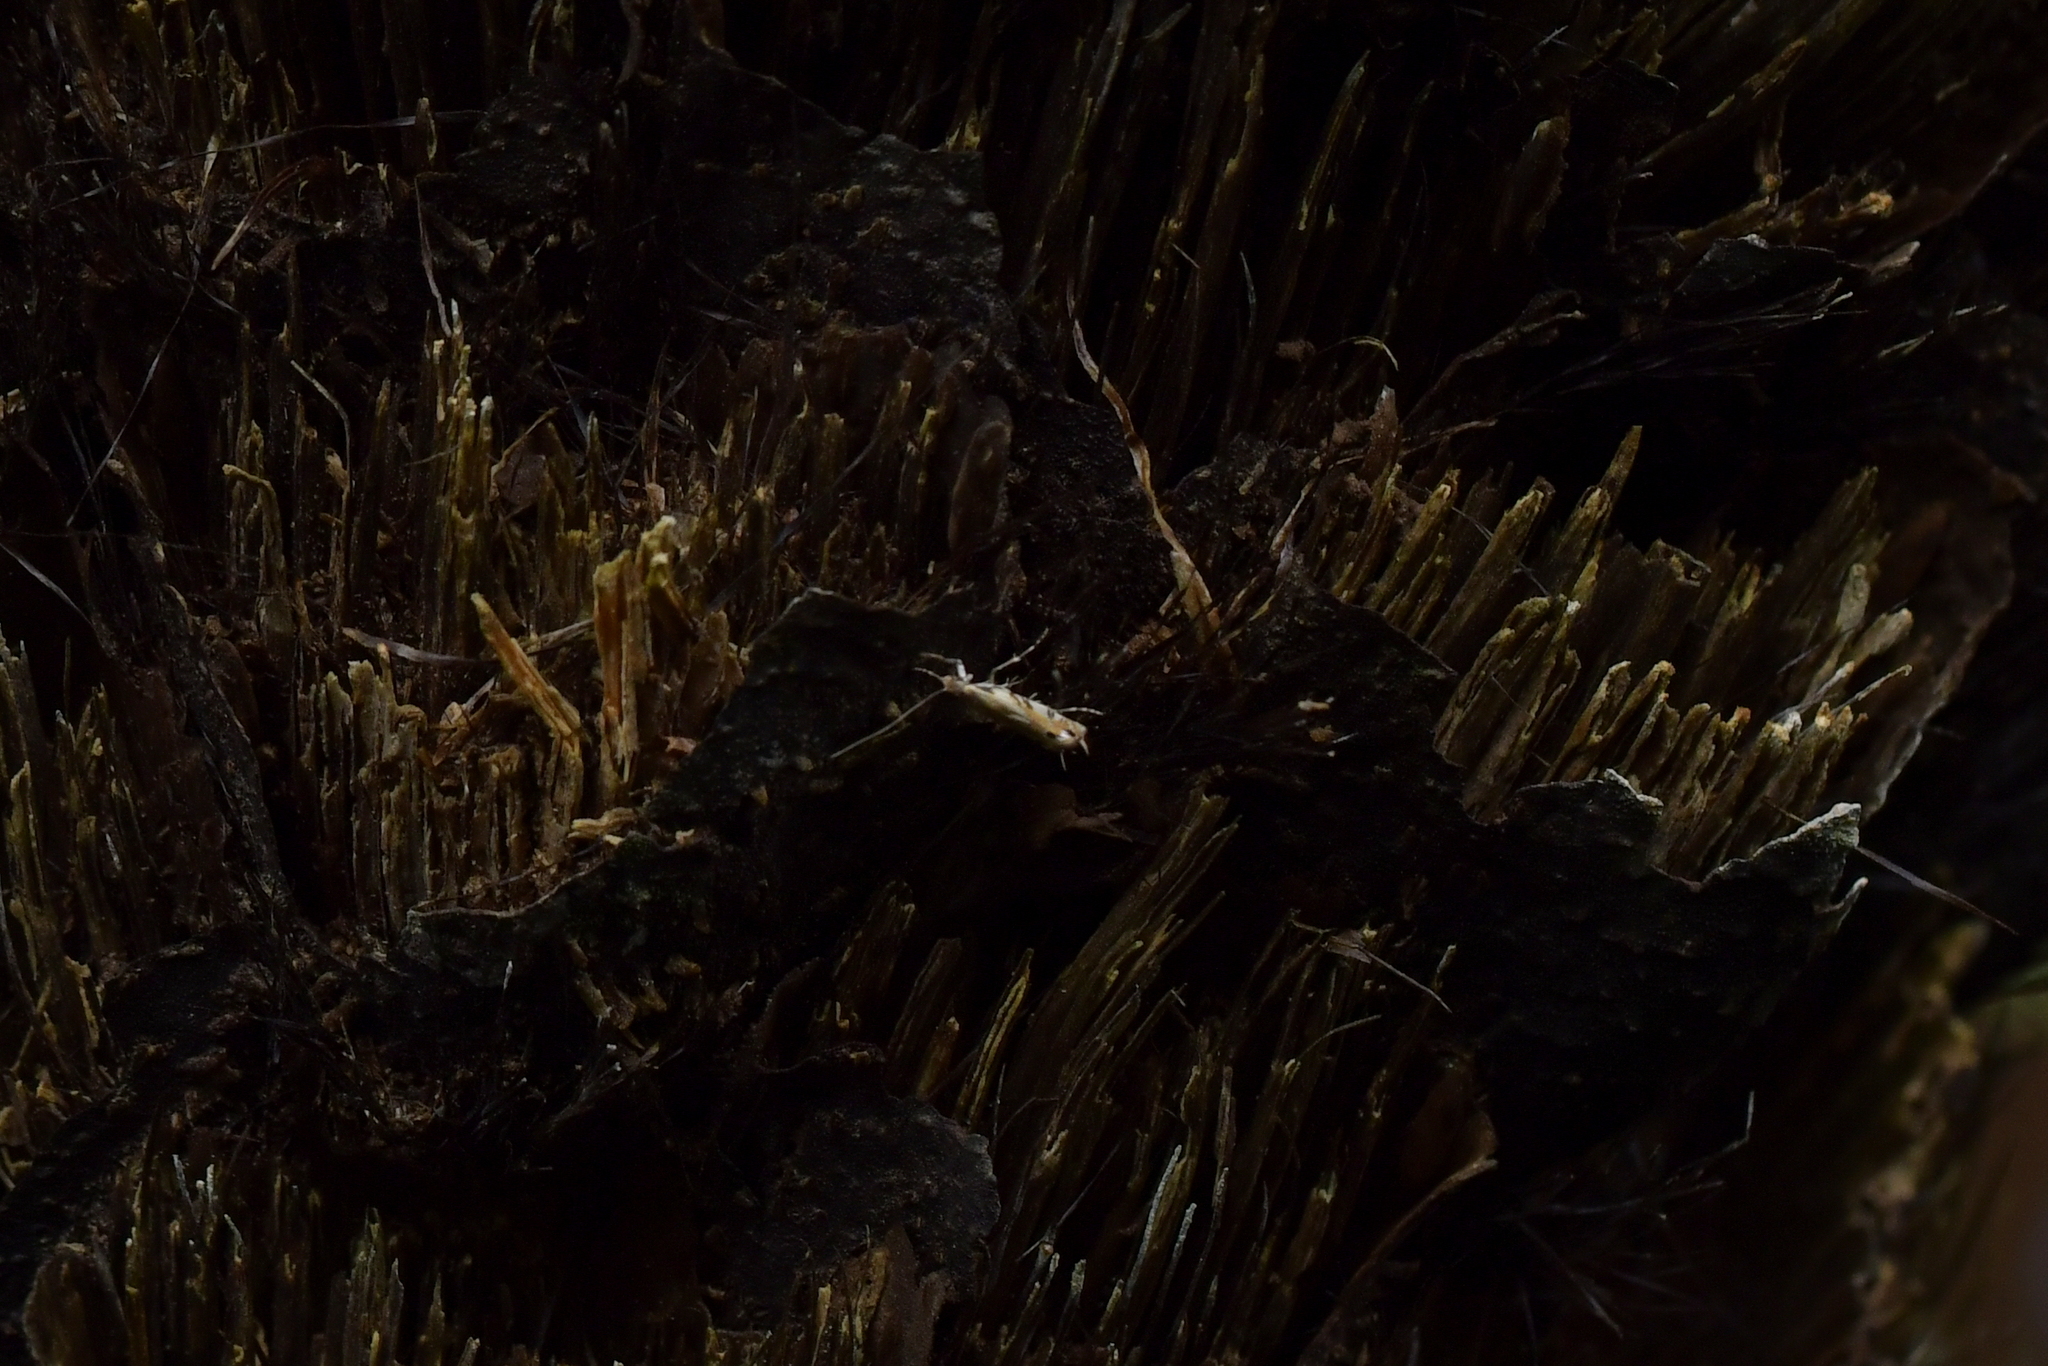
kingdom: Animalia
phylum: Arthropoda
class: Insecta
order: Lepidoptera
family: Tineidae
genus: Erechthias
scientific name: Erechthias decoranda
